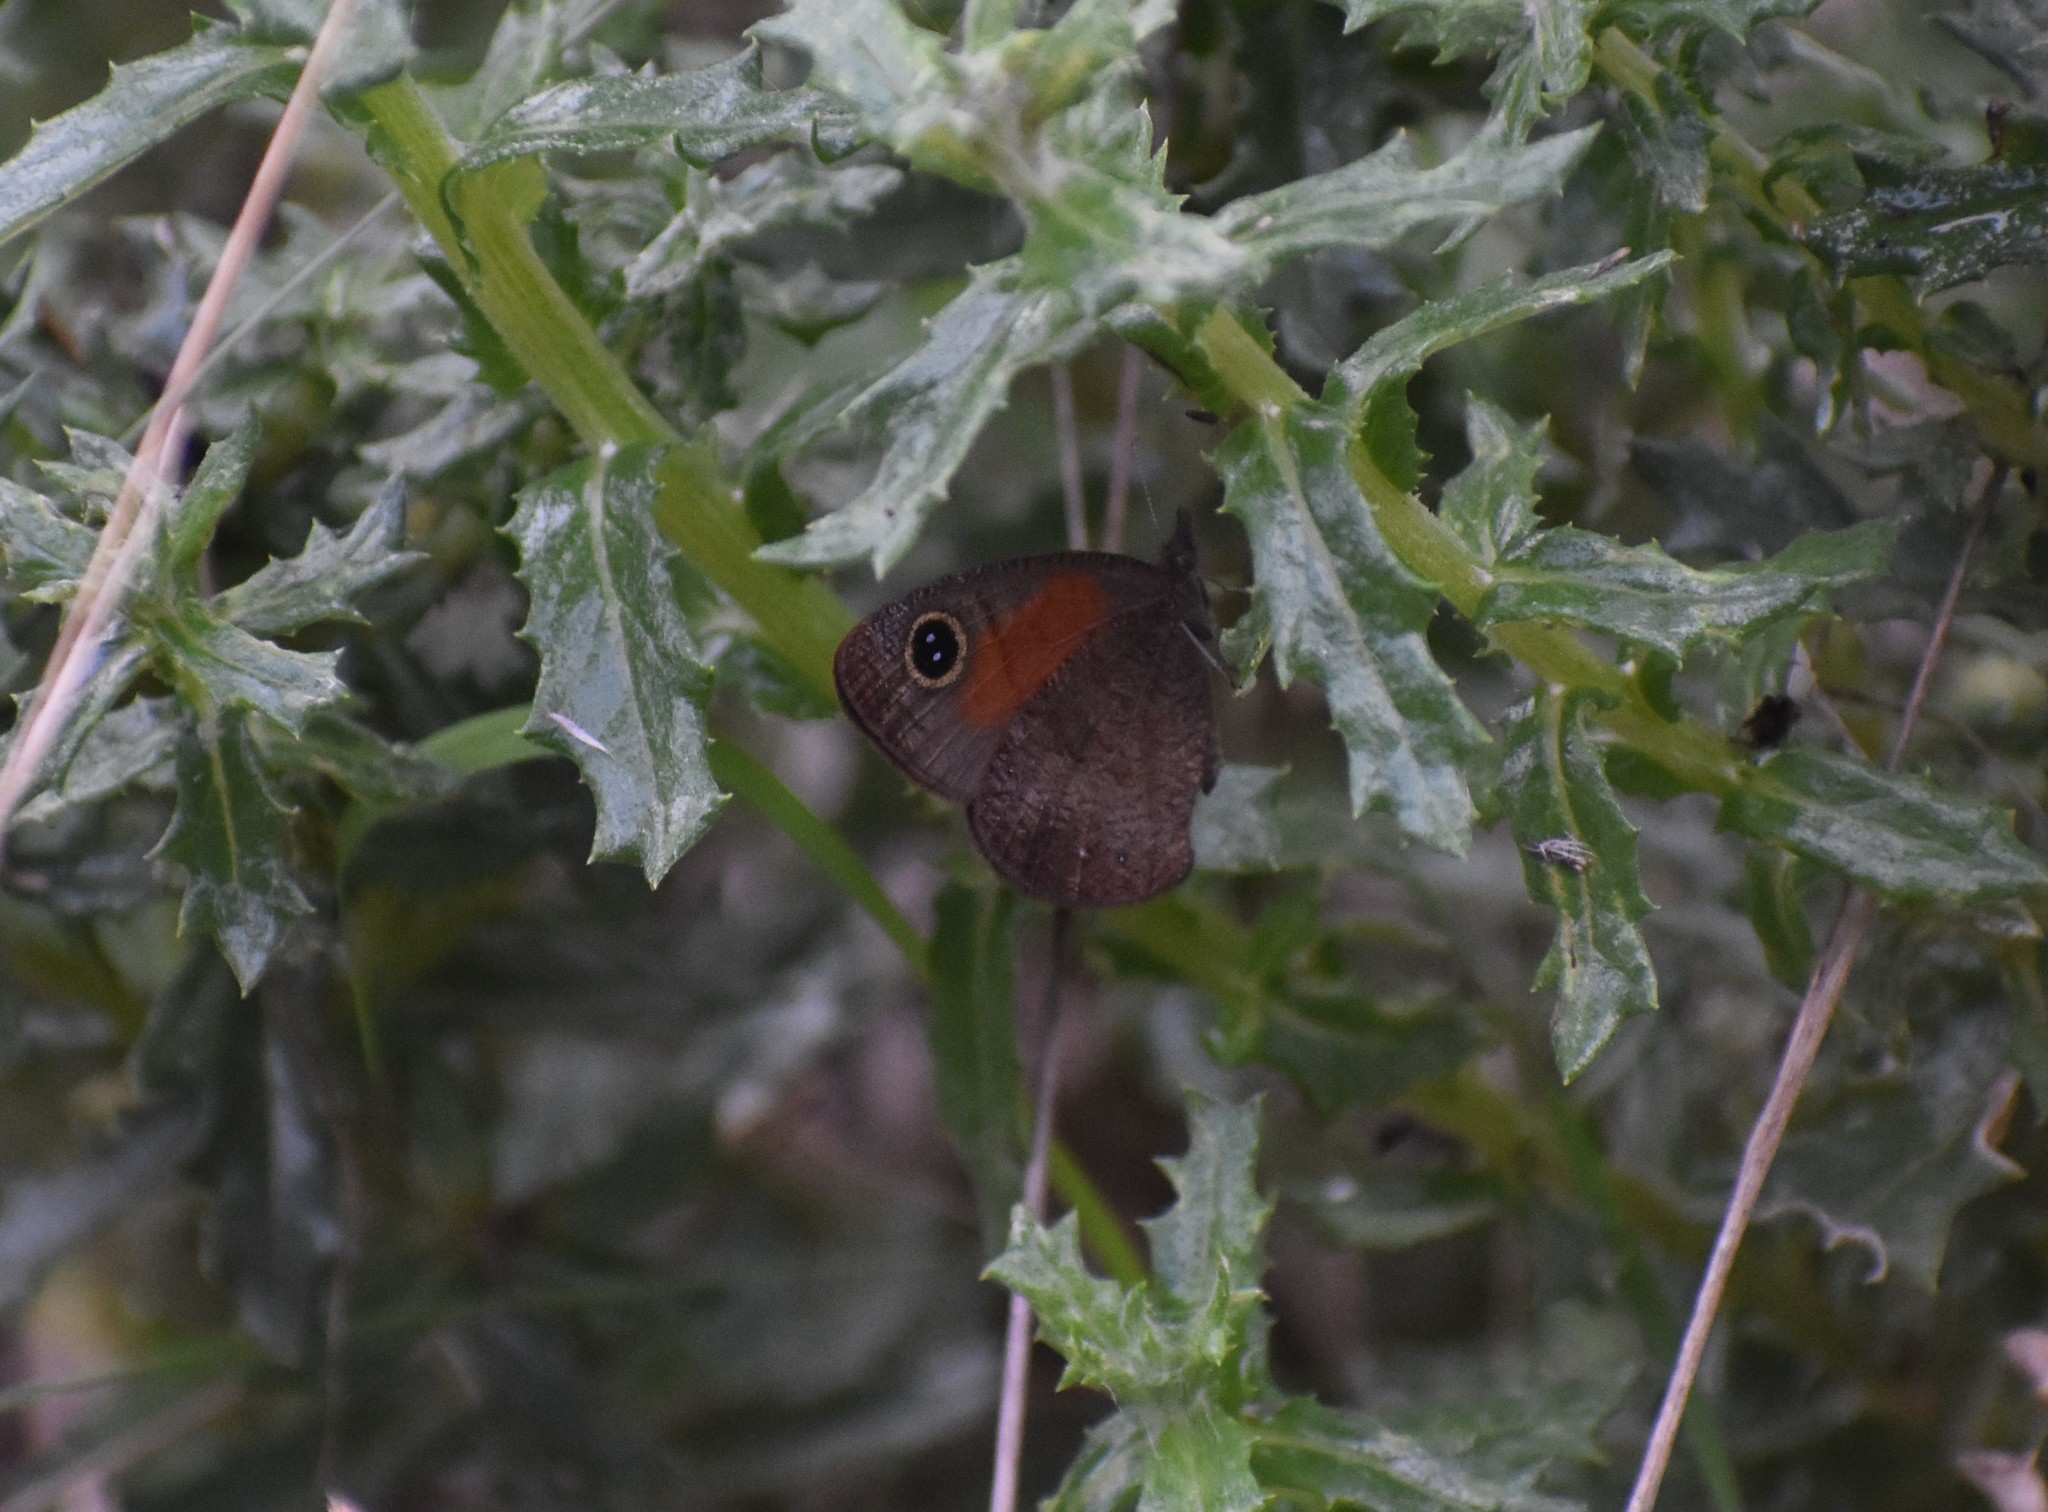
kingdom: Animalia
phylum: Arthropoda
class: Insecta
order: Lepidoptera
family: Nymphalidae
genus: Cassionympha
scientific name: Cassionympha cassius
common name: Rainforest brown
